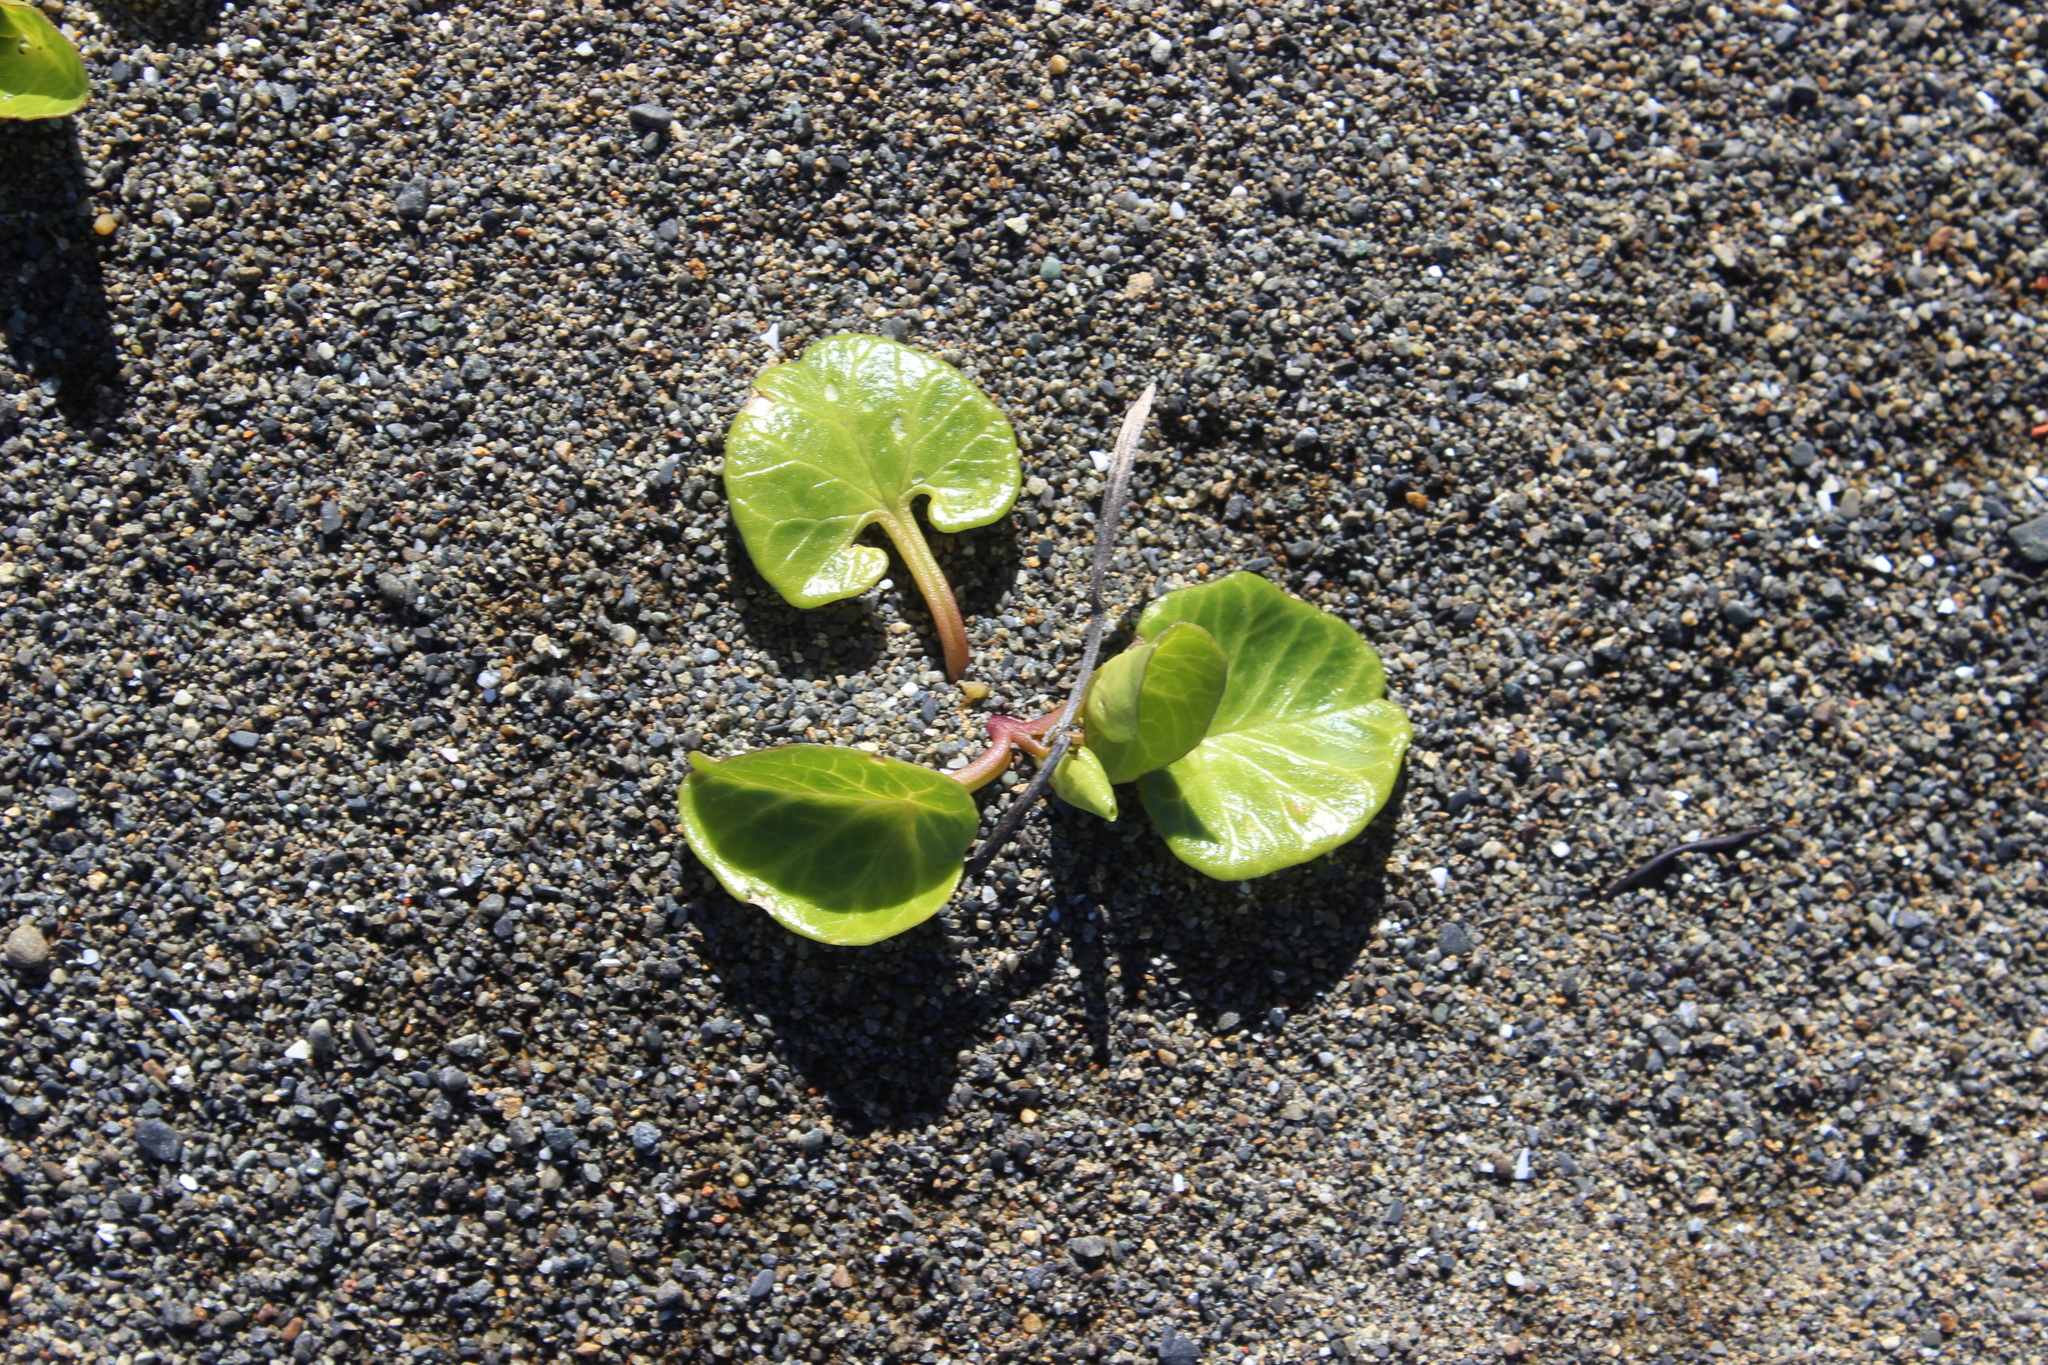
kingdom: Plantae
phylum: Tracheophyta
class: Magnoliopsida
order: Solanales
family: Convolvulaceae
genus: Calystegia
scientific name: Calystegia soldanella
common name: Sea bindweed
